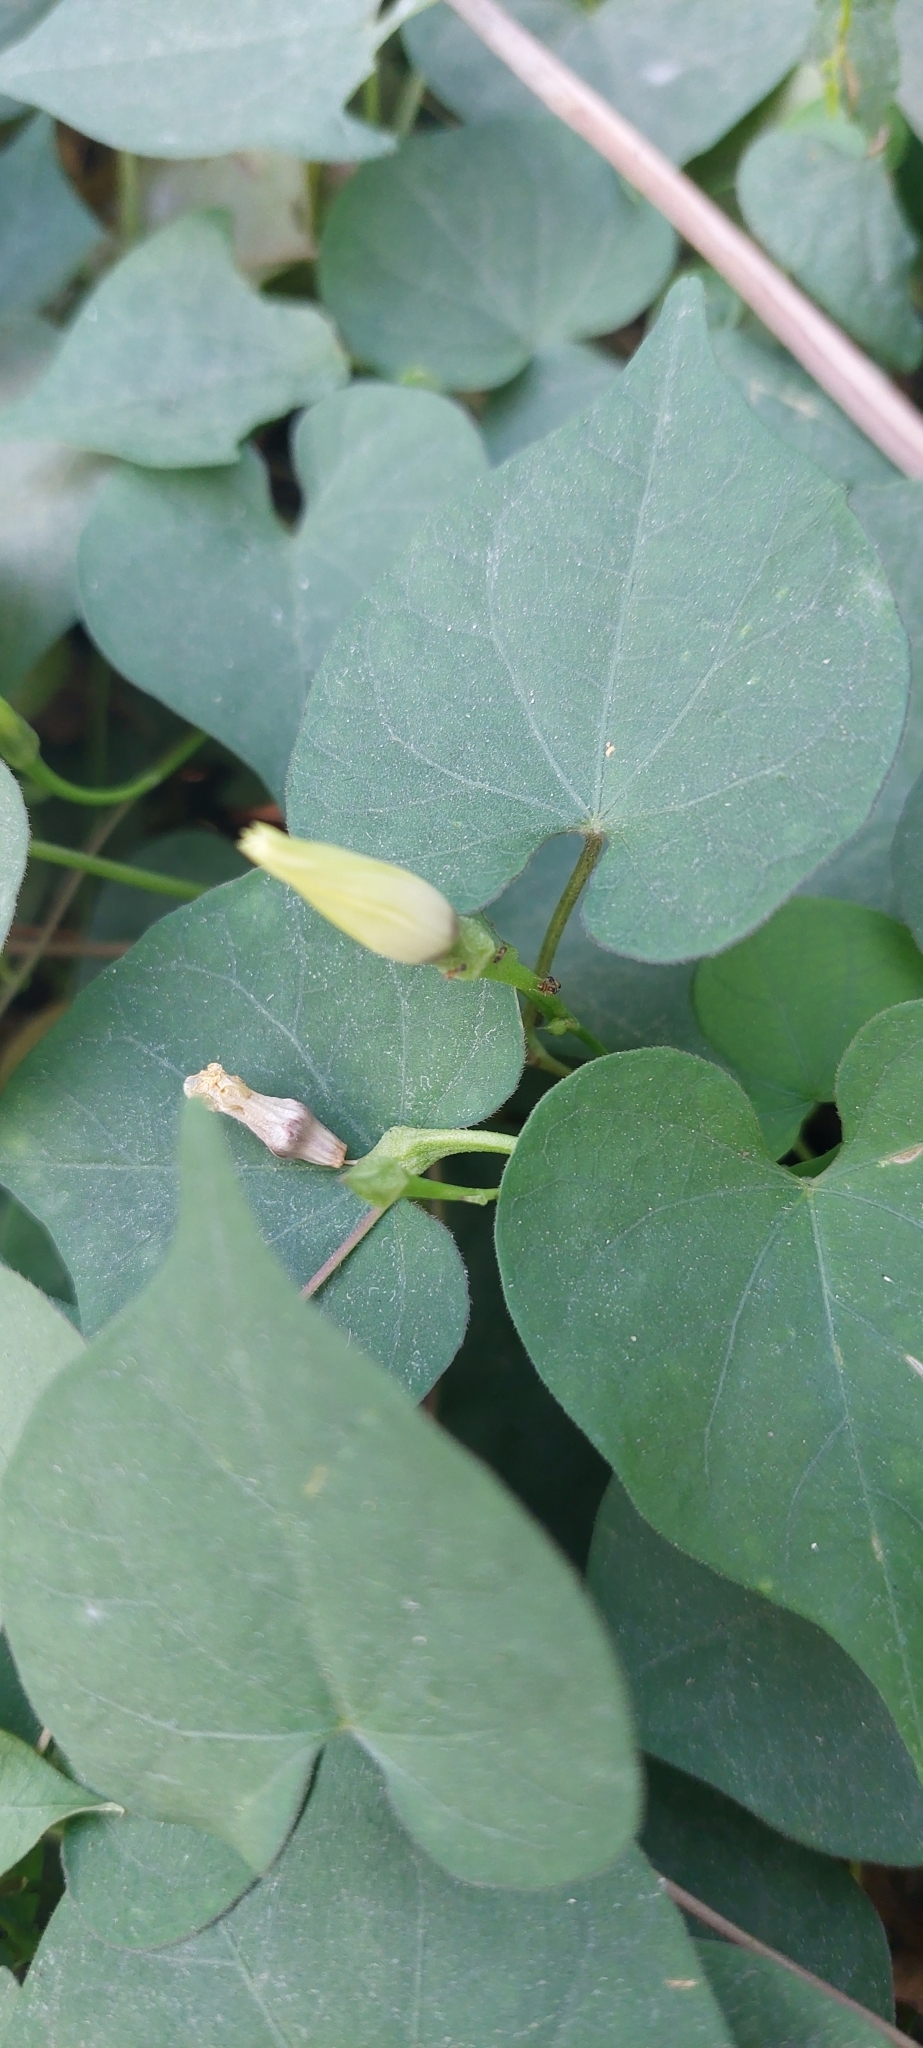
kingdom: Plantae
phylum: Tracheophyta
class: Magnoliopsida
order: Solanales
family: Convolvulaceae
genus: Ipomoea
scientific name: Ipomoea obscura
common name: Obscure morning-glory
